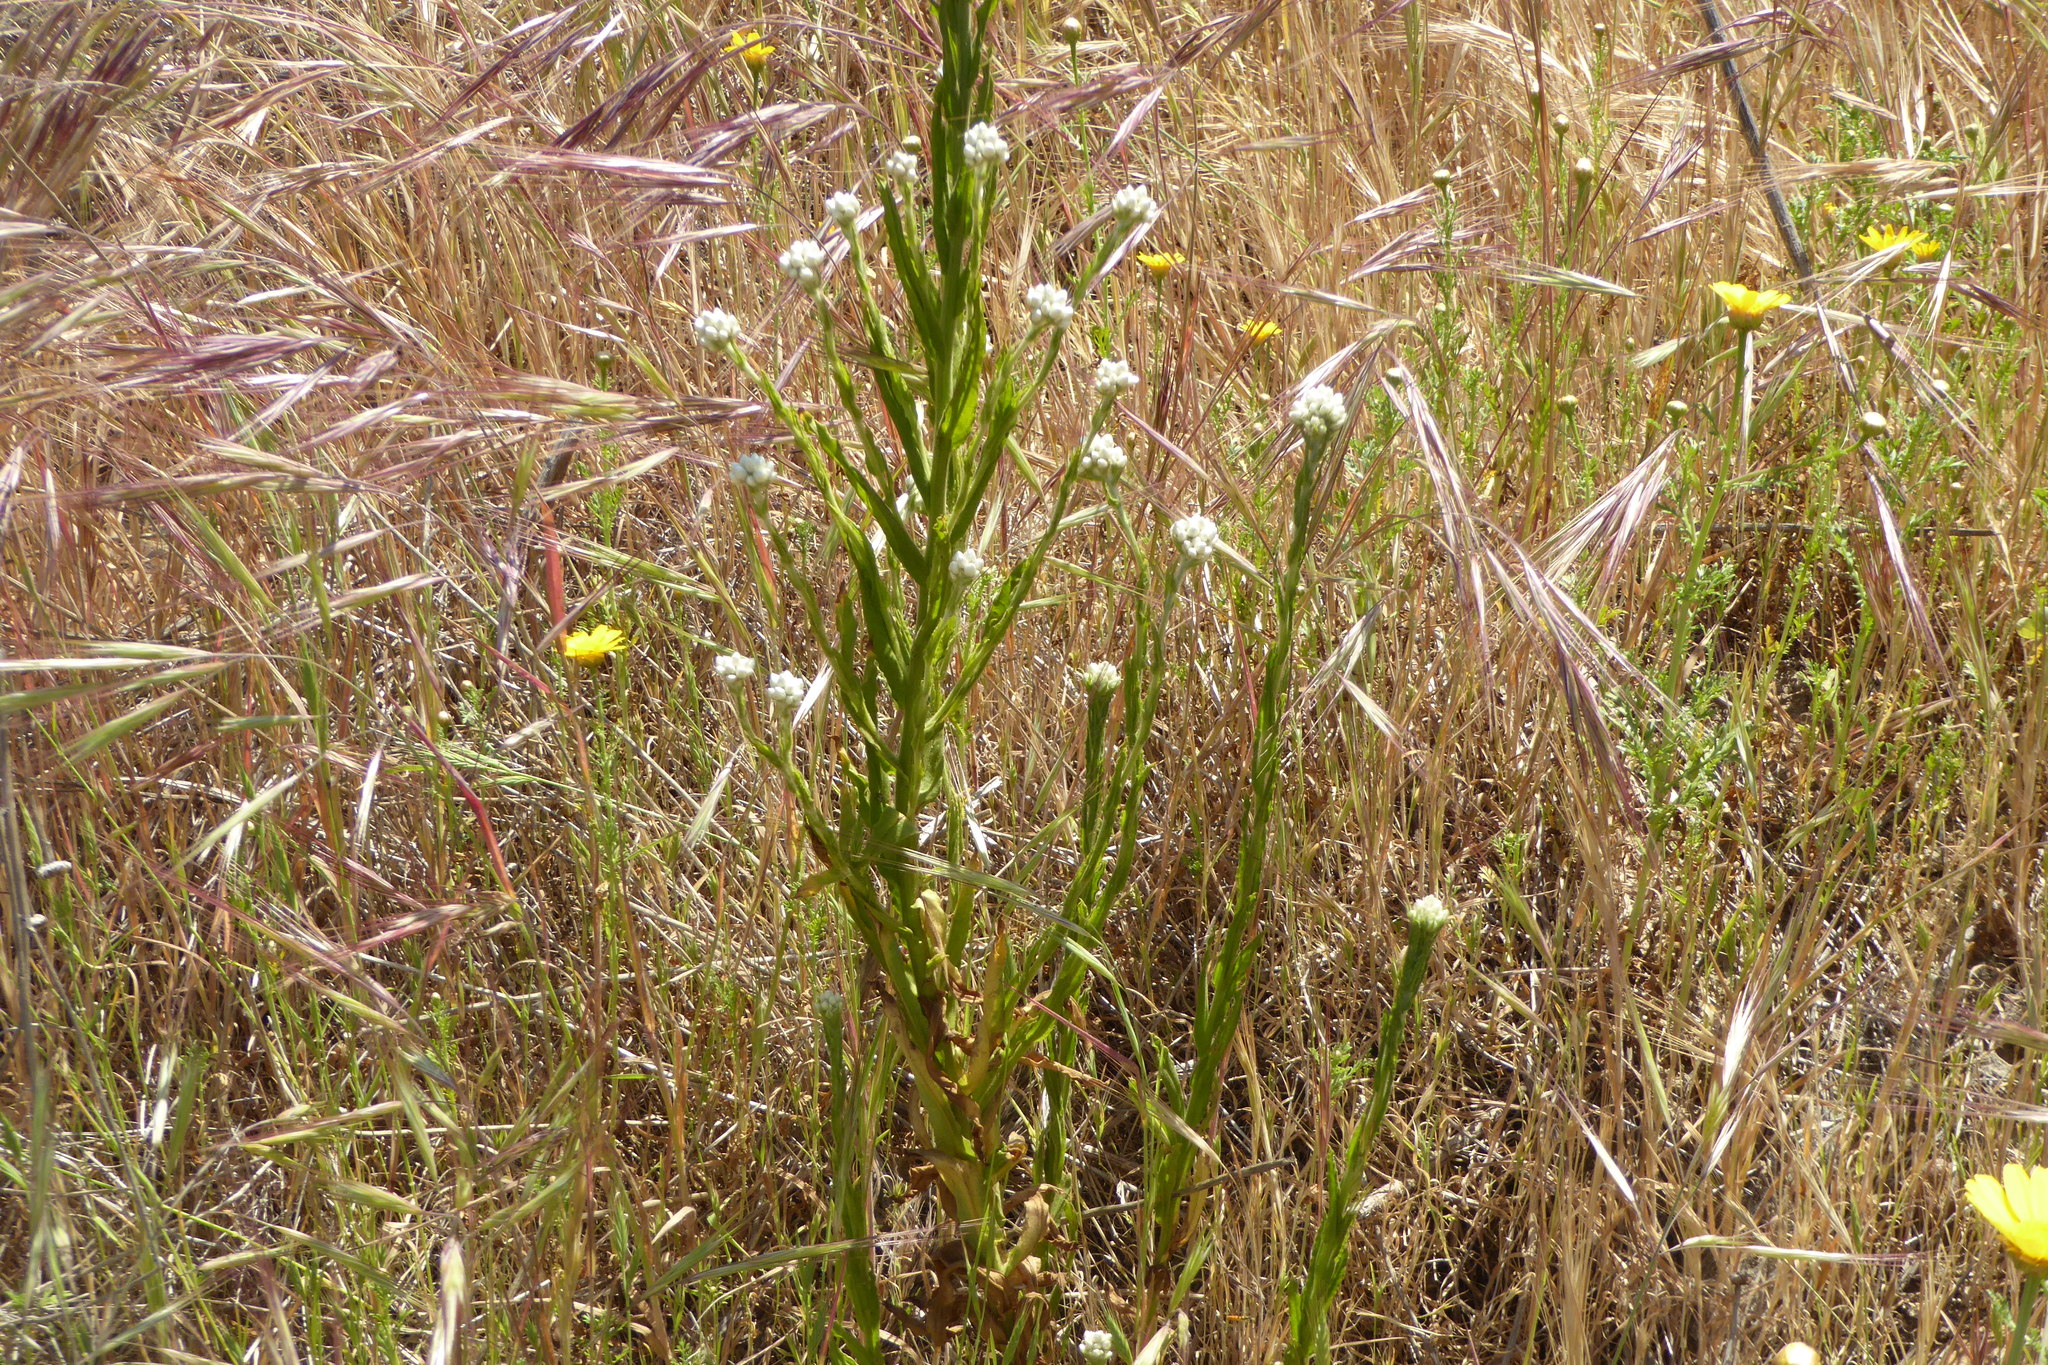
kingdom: Plantae
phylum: Tracheophyta
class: Magnoliopsida
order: Asterales
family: Asteraceae
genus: Pseudognaphalium
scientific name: Pseudognaphalium californicum
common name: California rabbit-tobacco
